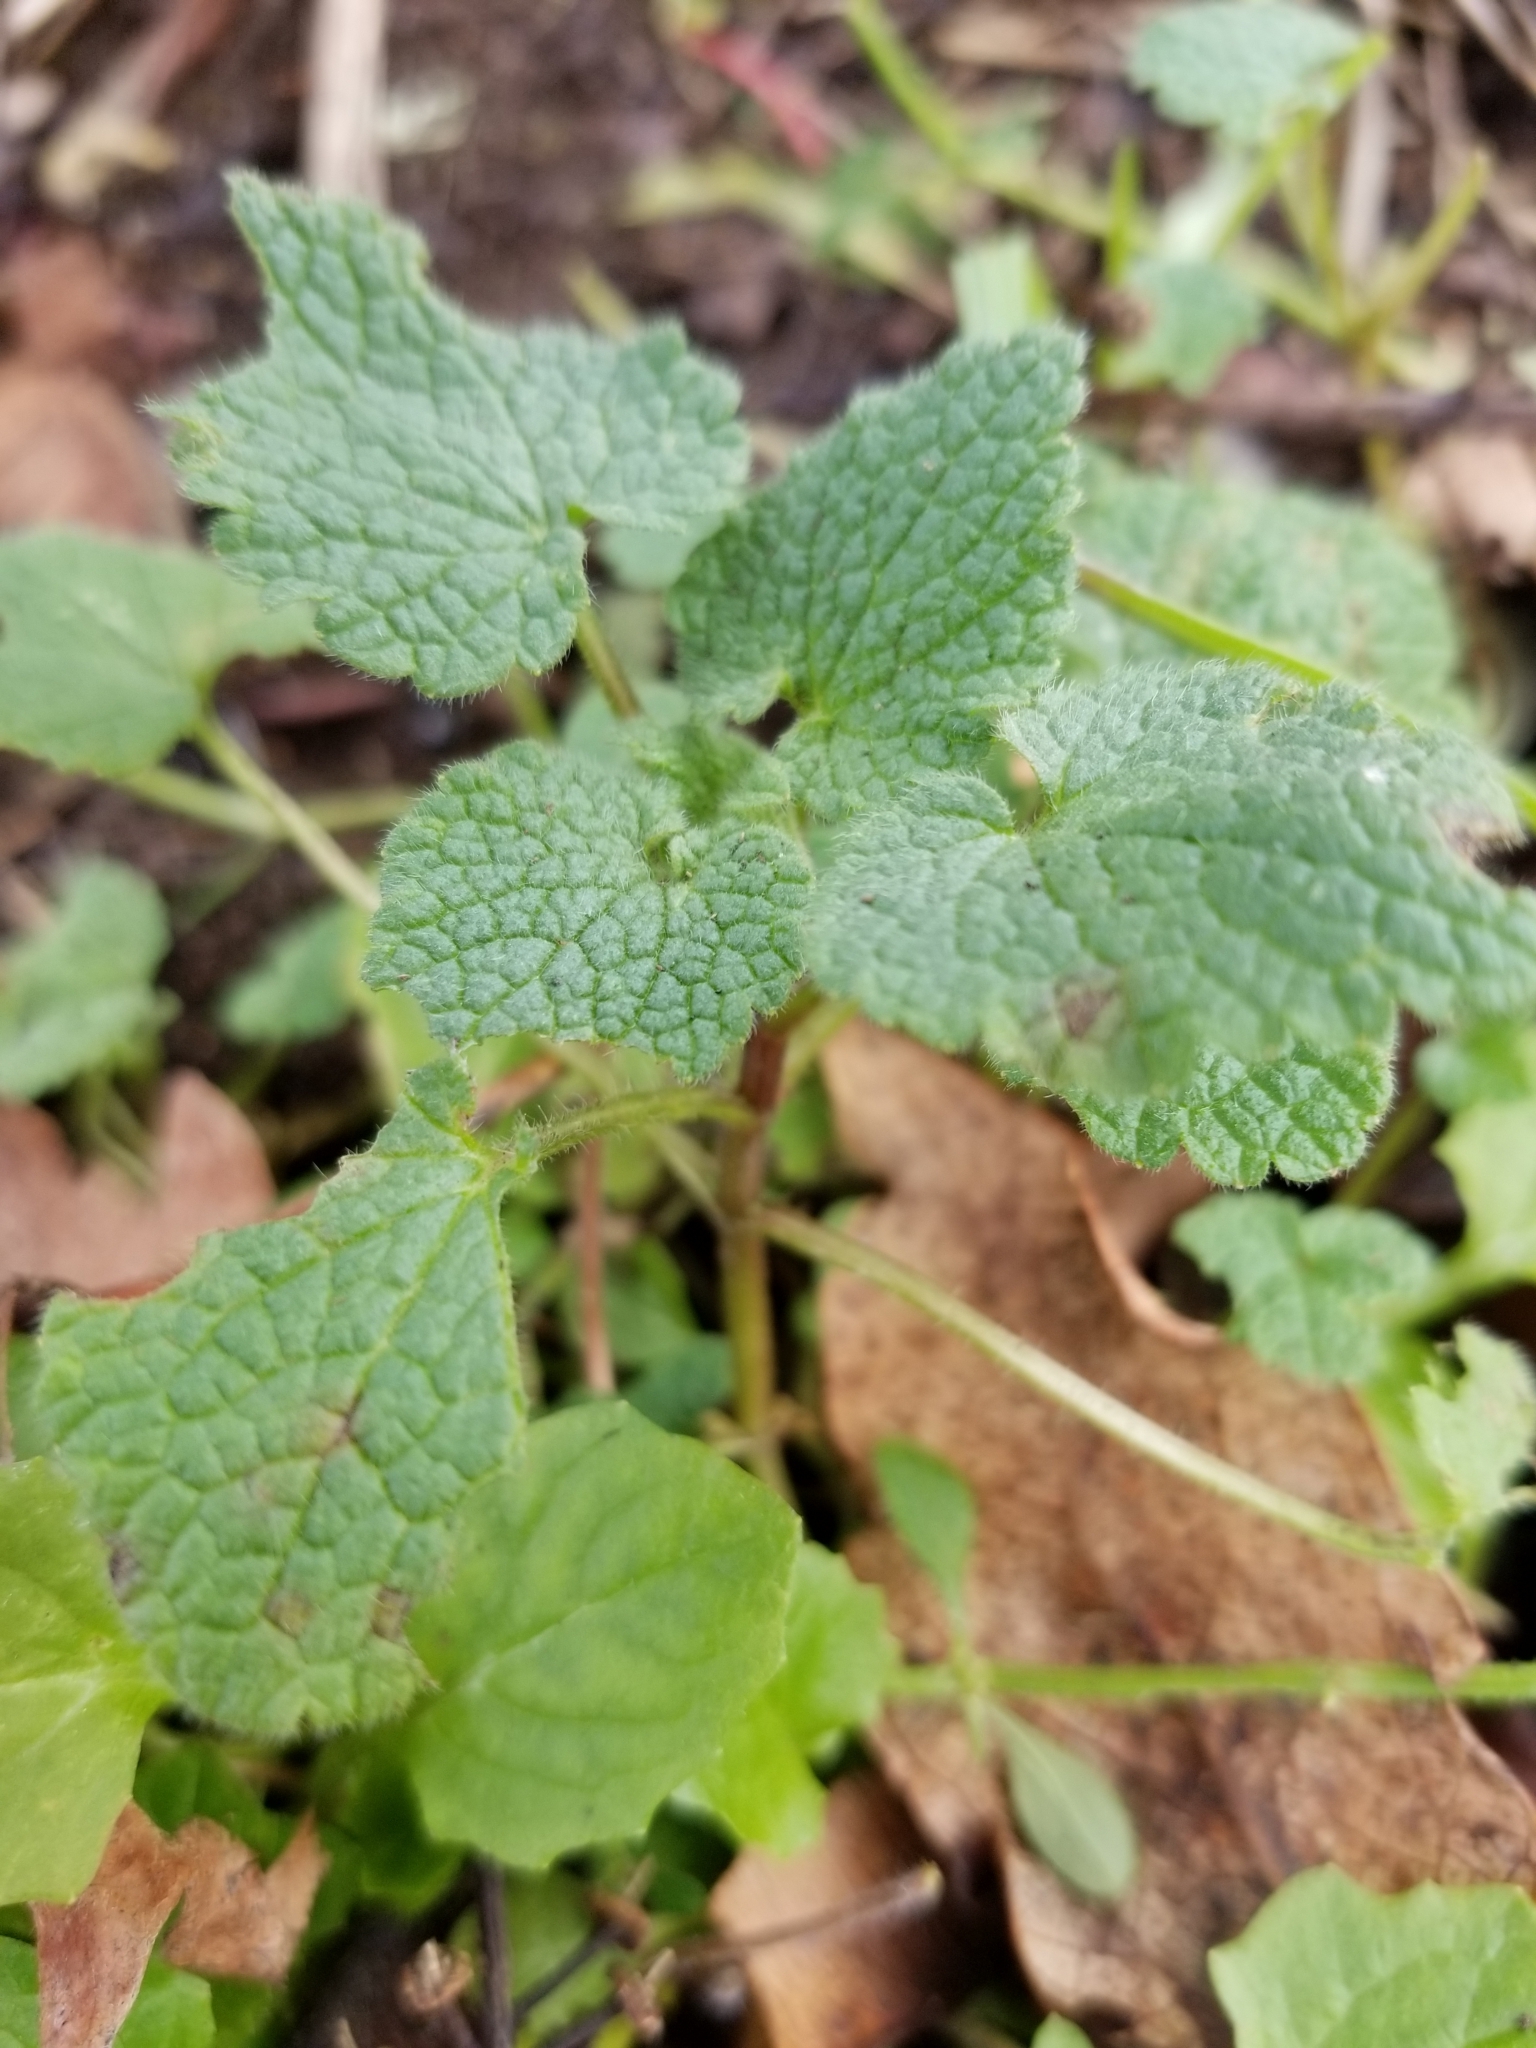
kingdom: Plantae
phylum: Tracheophyta
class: Magnoliopsida
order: Lamiales
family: Lamiaceae
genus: Lamium
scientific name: Lamium purpureum
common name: Red dead-nettle
